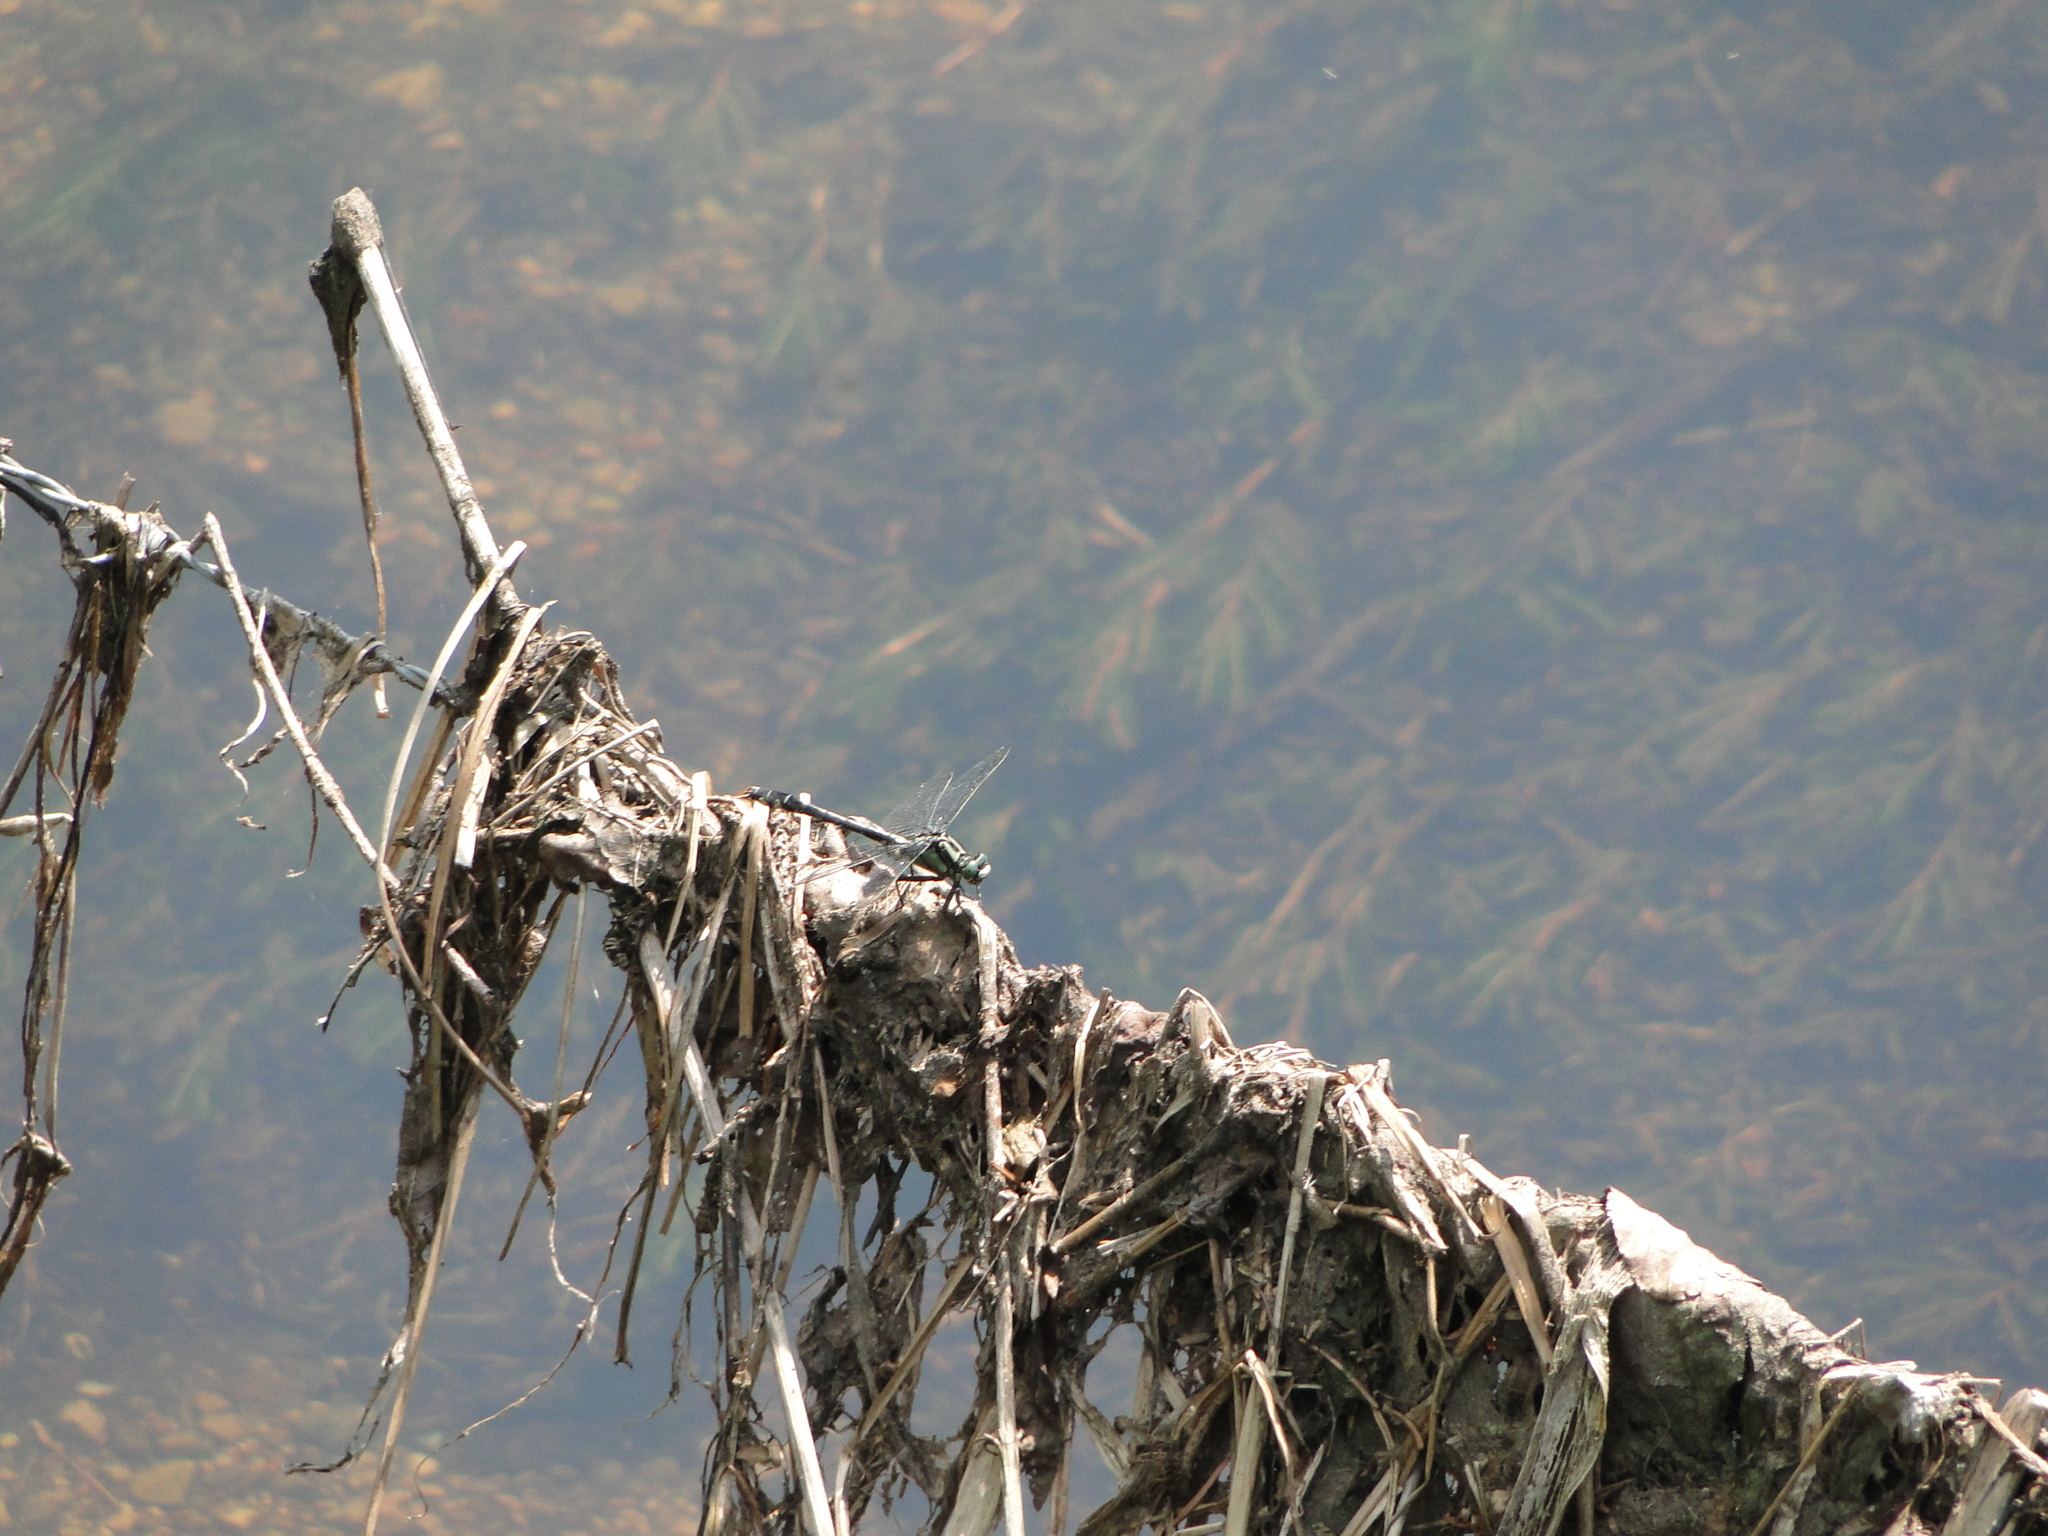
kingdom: Animalia
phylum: Arthropoda
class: Insecta
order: Odonata
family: Gomphidae
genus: Gomphus
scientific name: Gomphus vulgatissimus
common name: Club-tailed dragonfly
